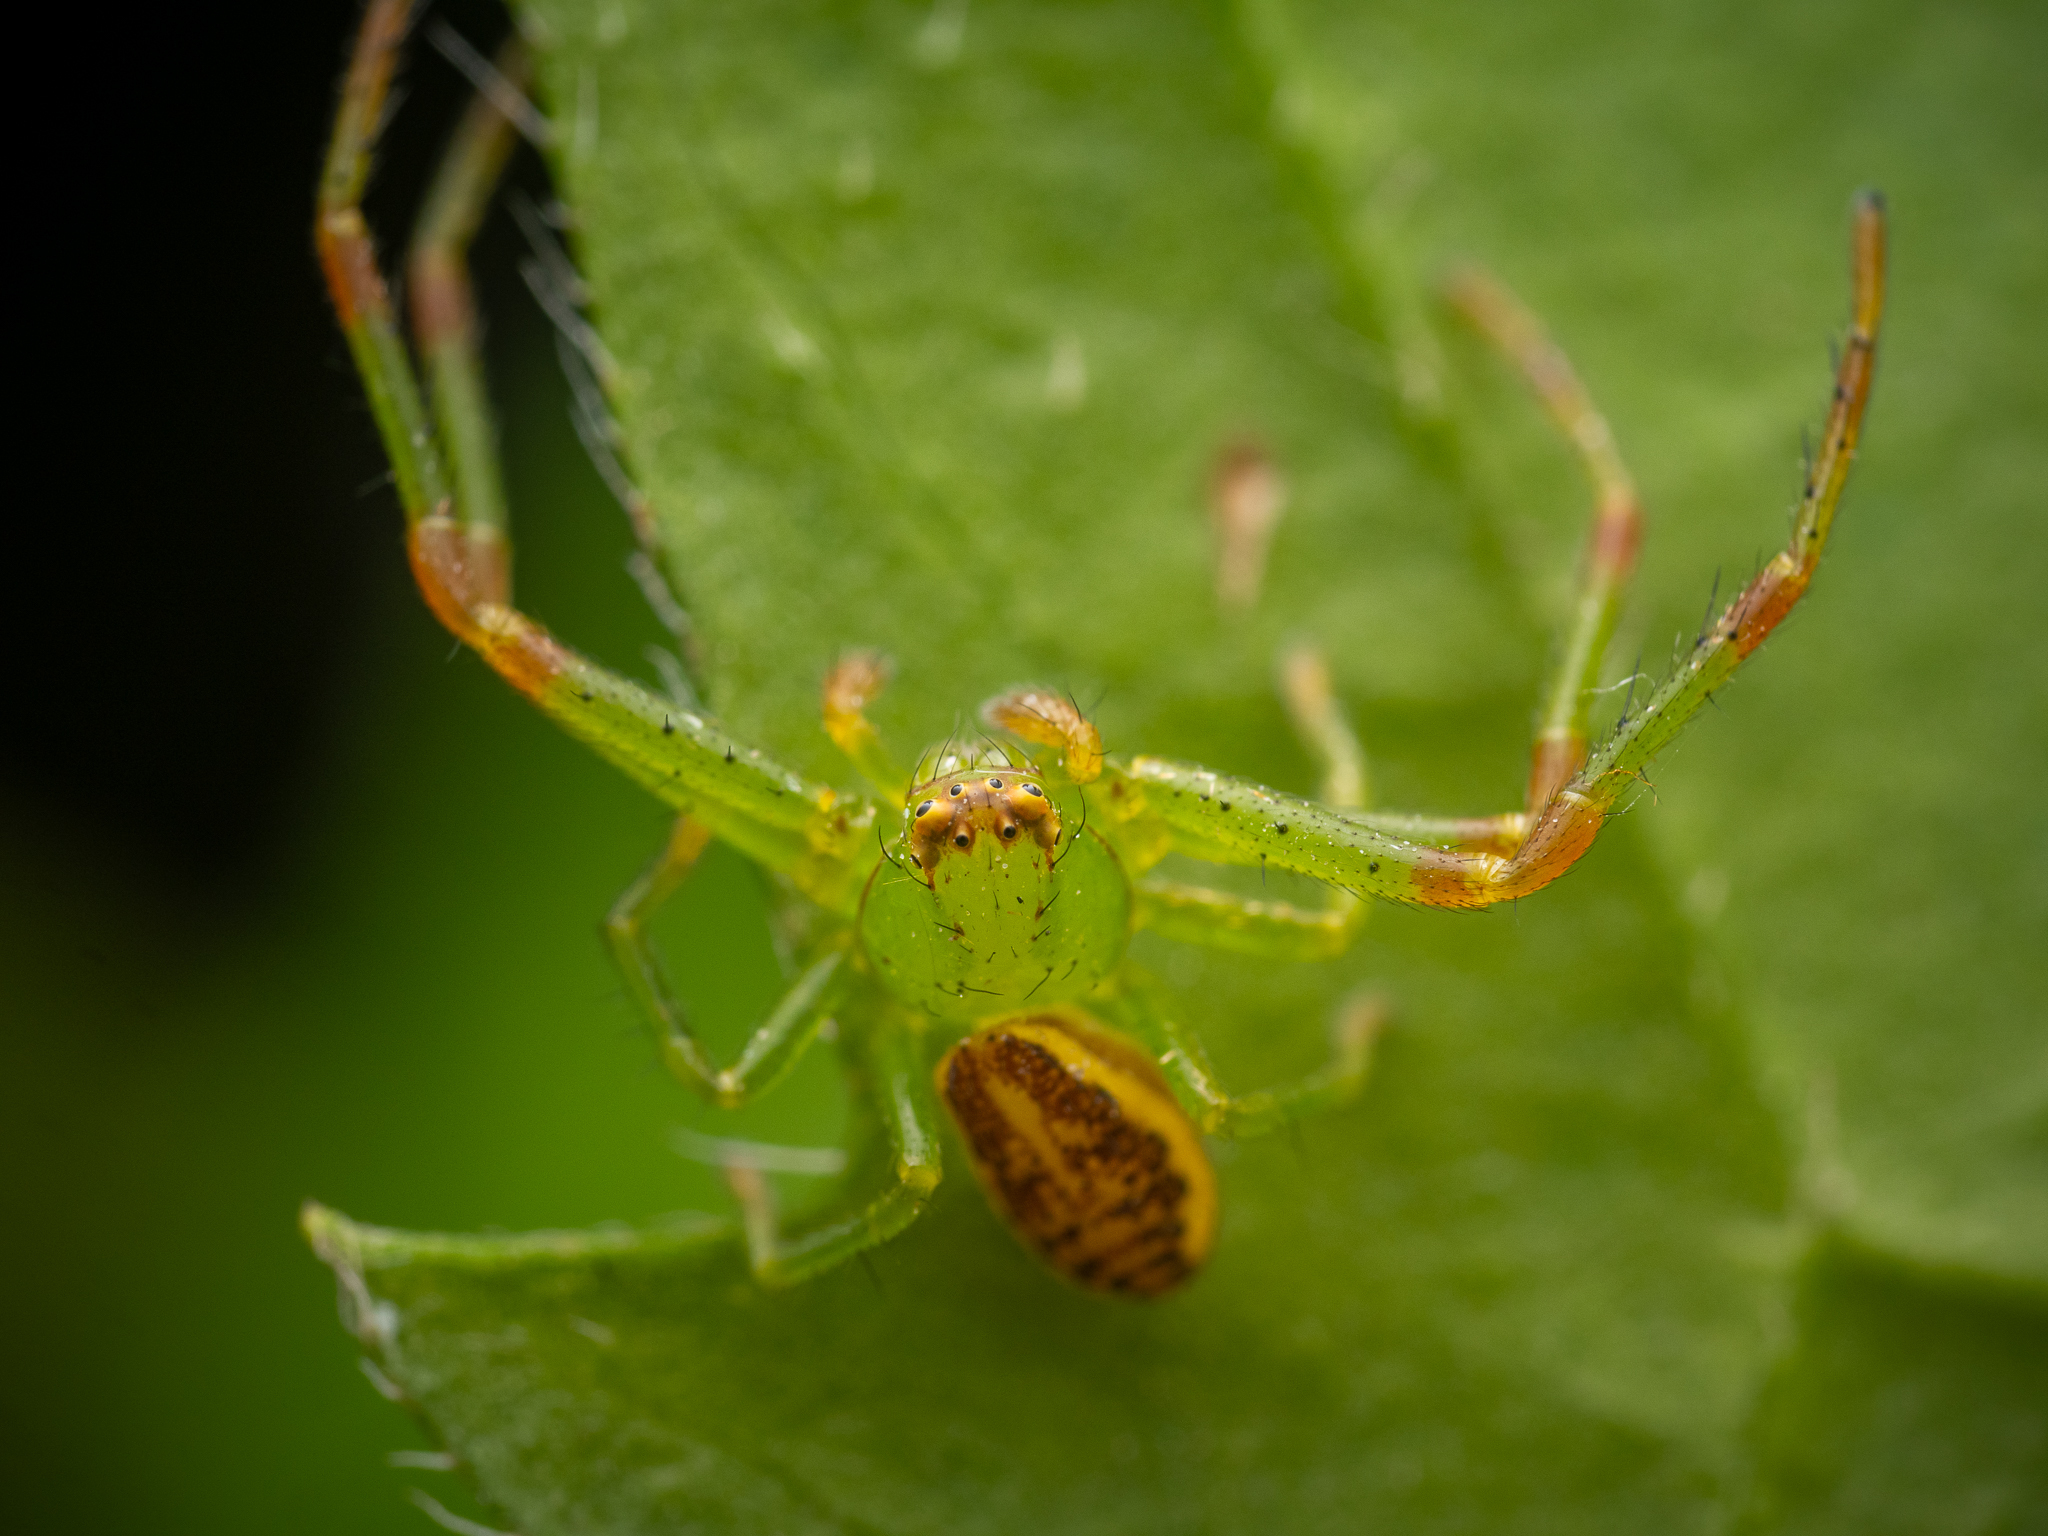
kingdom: Animalia
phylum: Arthropoda
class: Arachnida
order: Araneae
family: Thomisidae
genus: Diaea
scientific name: Diaea dorsata
